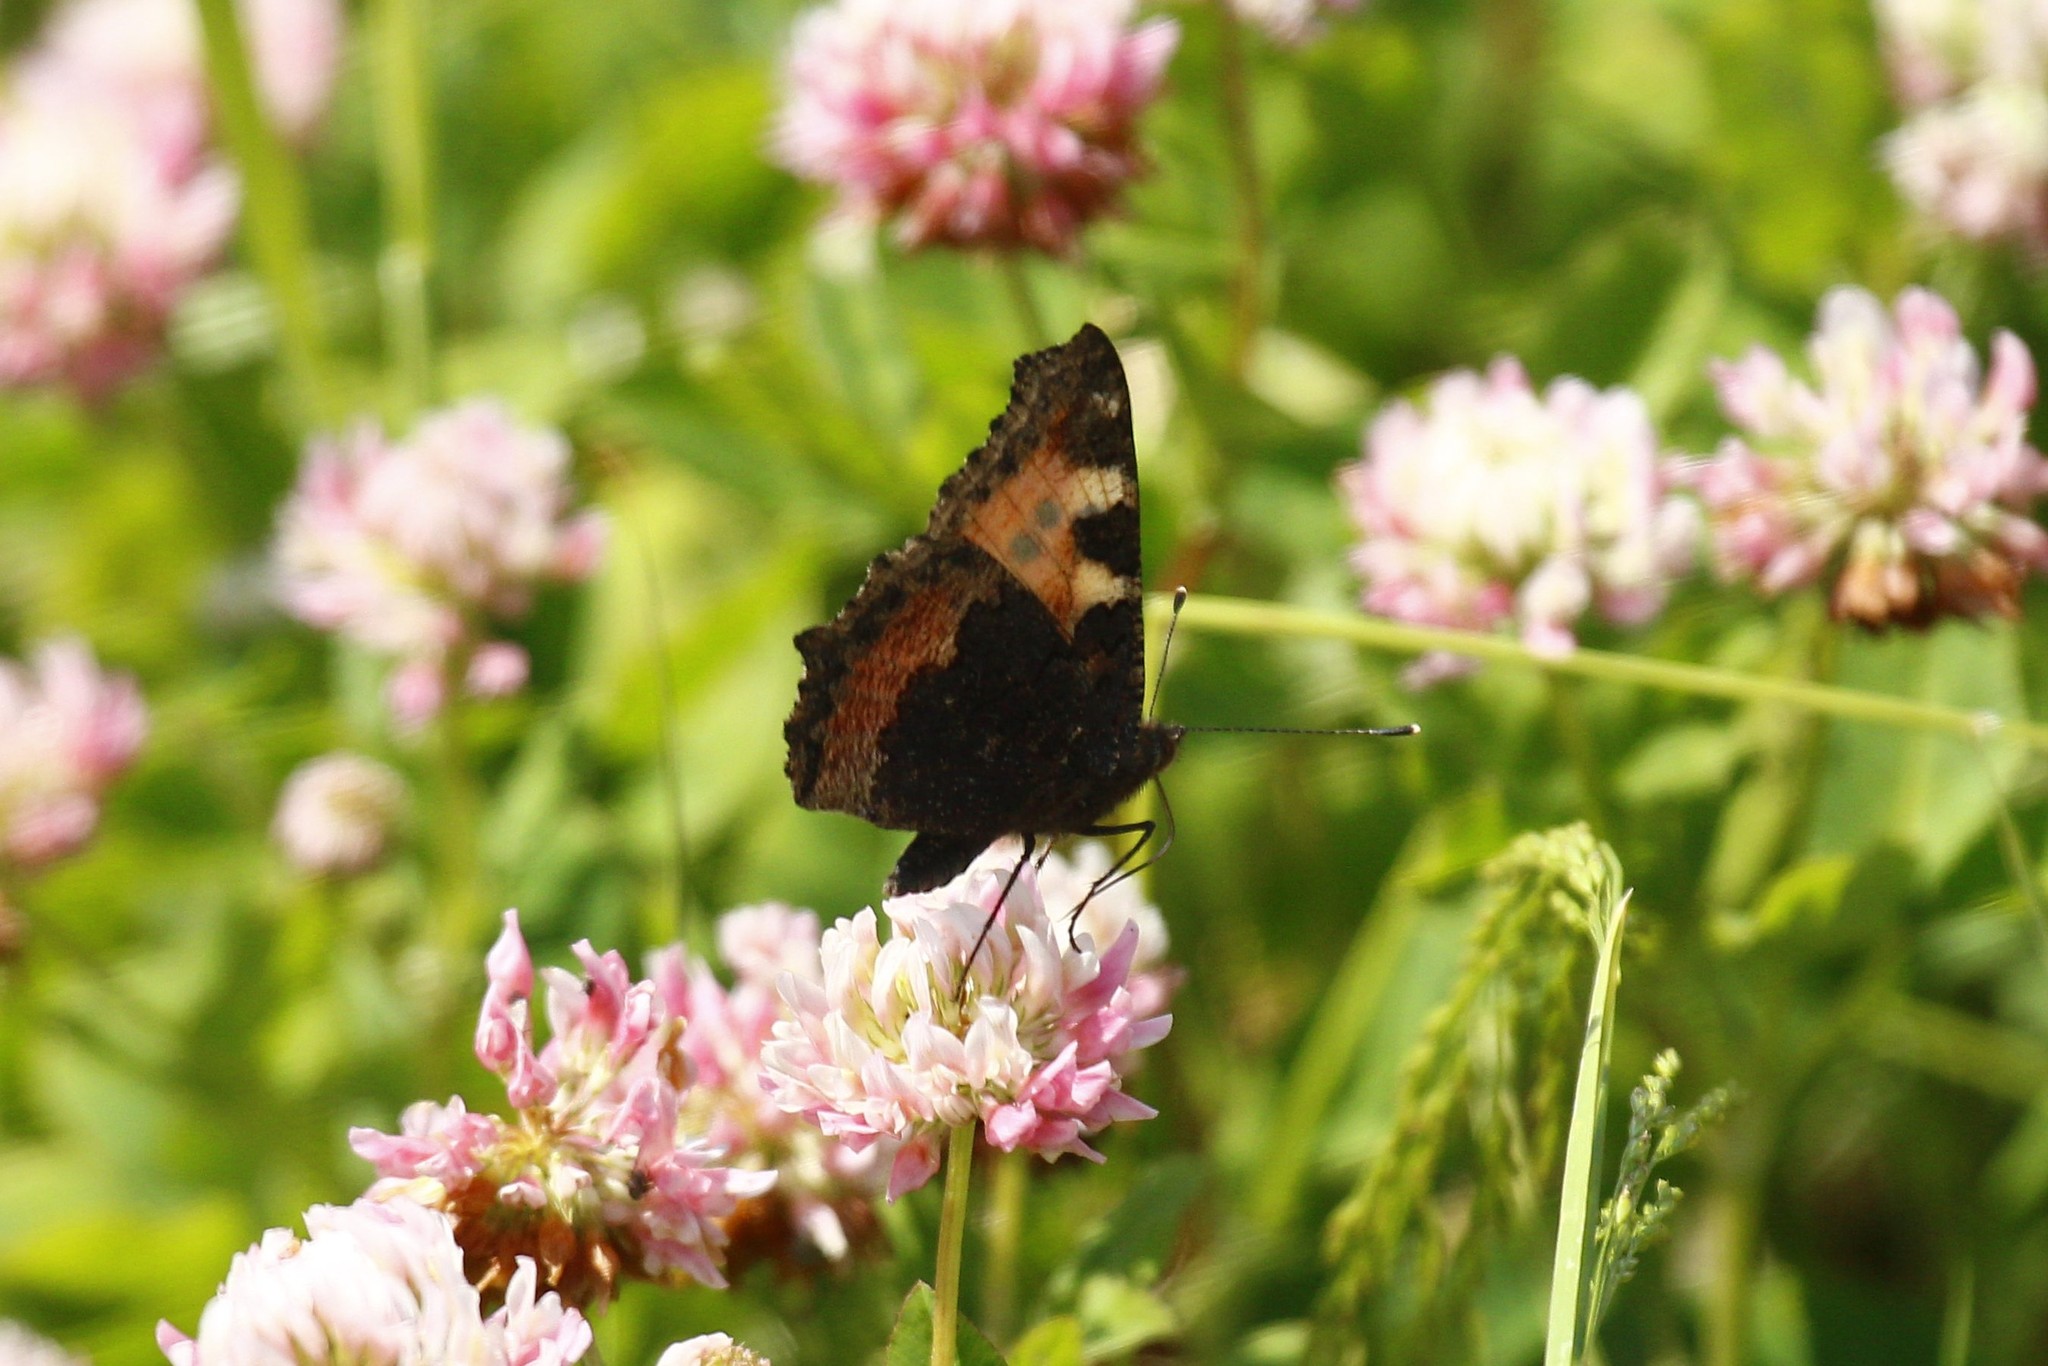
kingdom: Animalia
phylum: Arthropoda
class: Insecta
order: Lepidoptera
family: Nymphalidae
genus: Aglais
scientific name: Aglais urticae
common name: Small tortoiseshell
